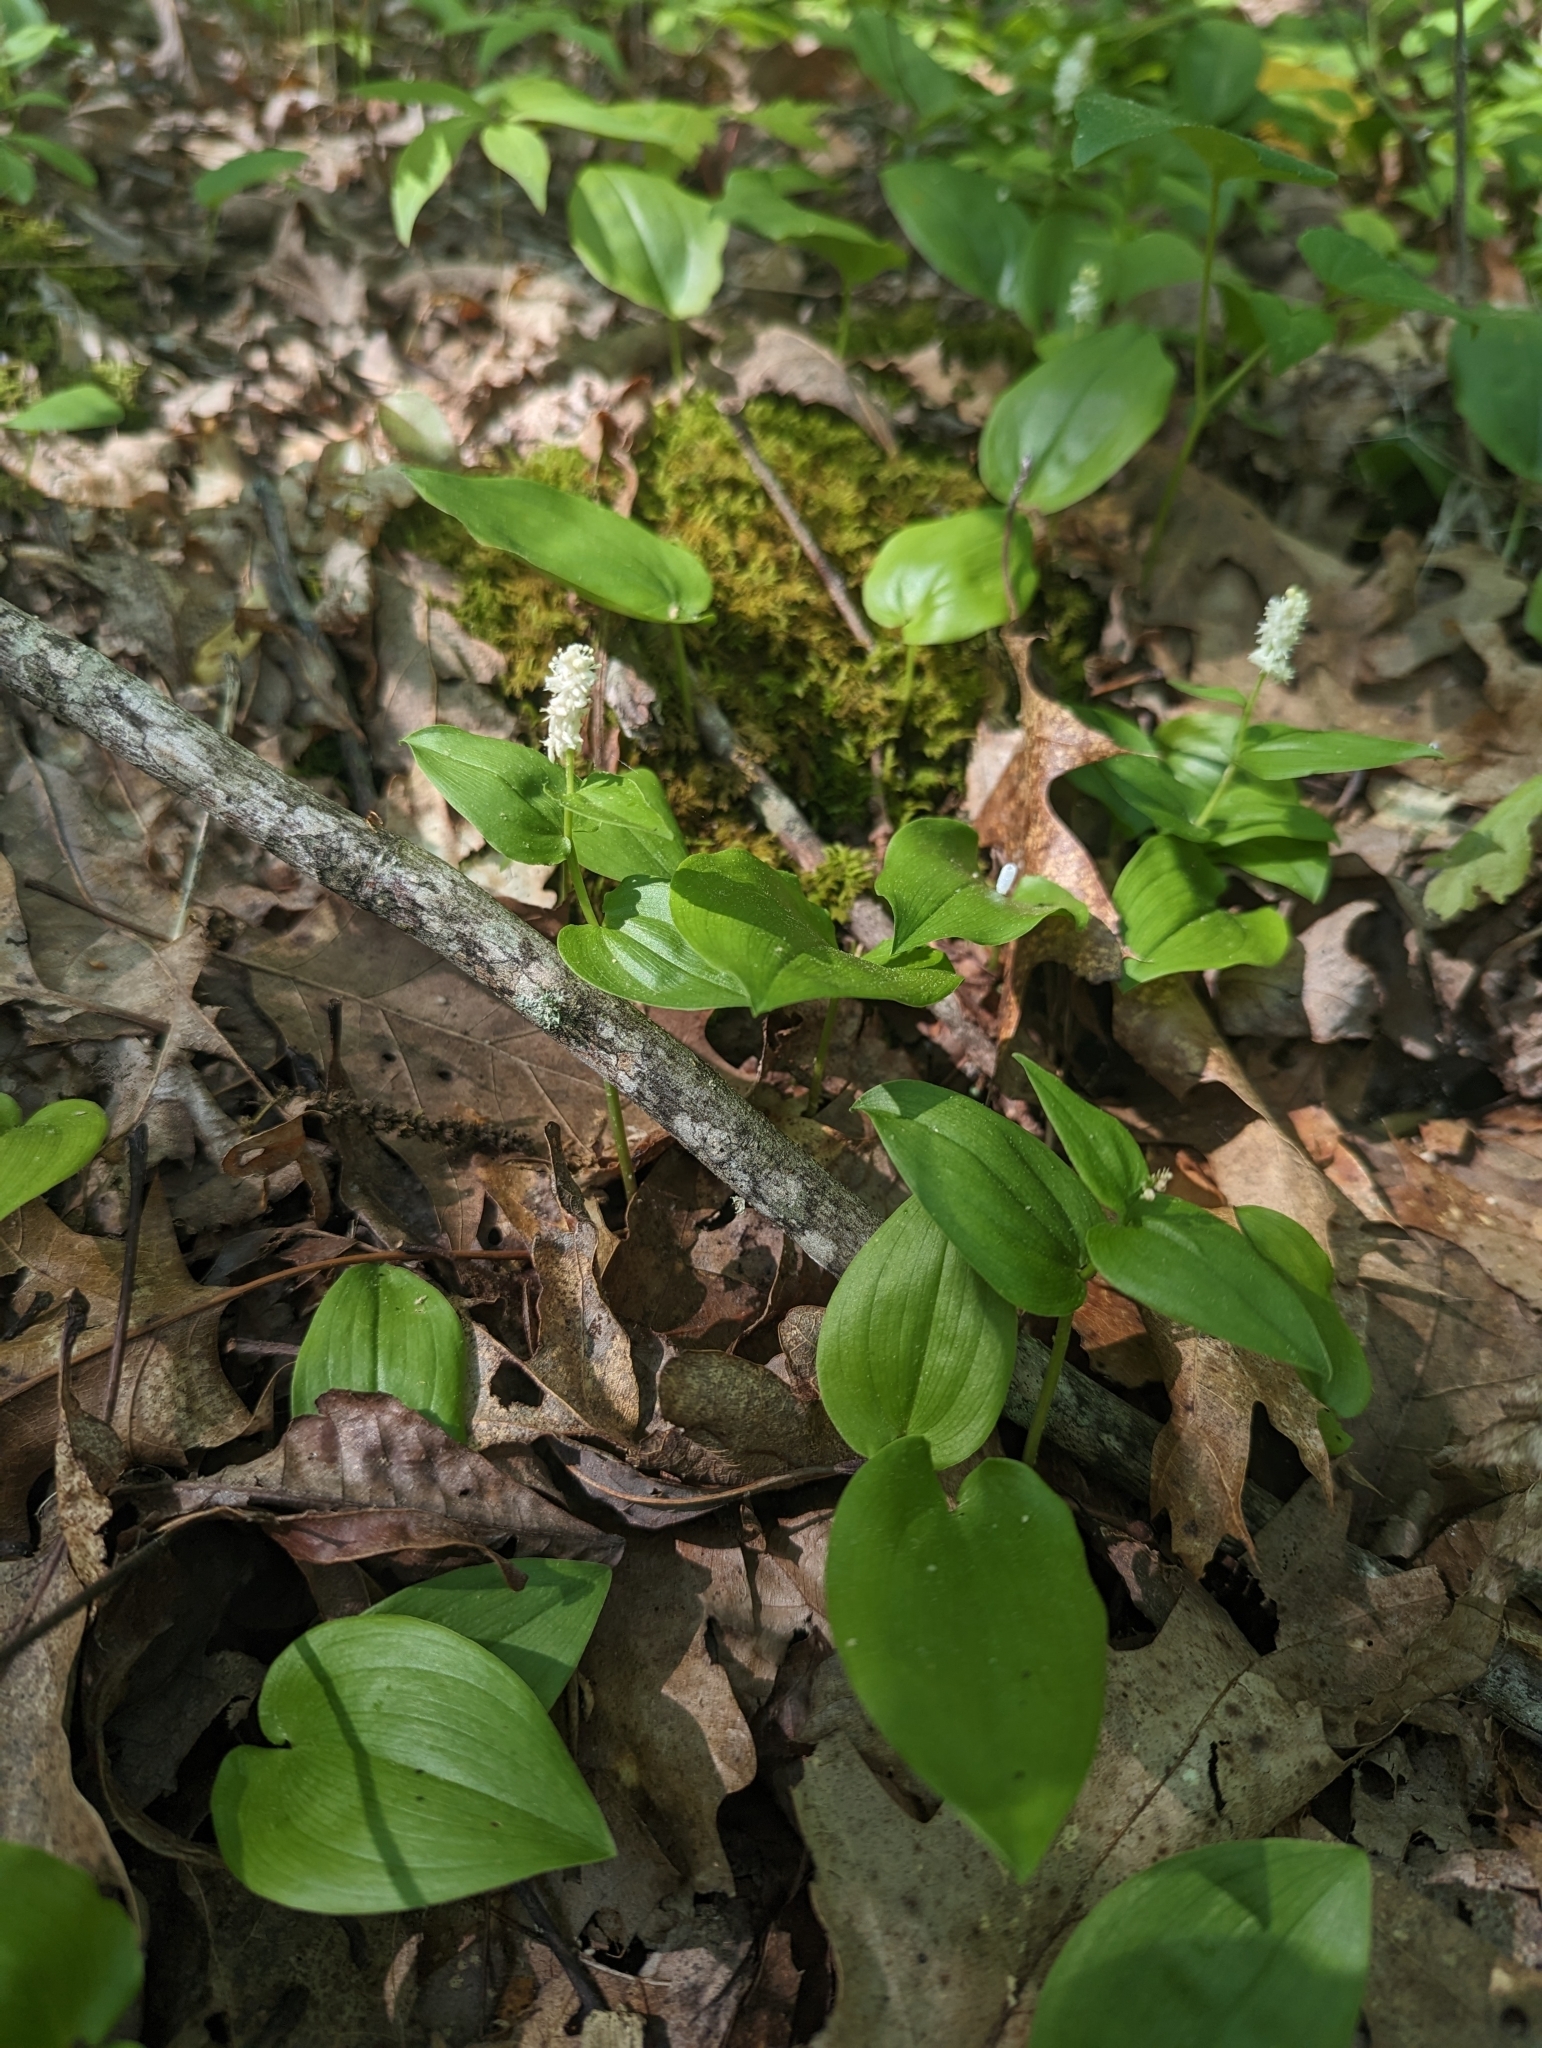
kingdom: Plantae
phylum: Tracheophyta
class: Liliopsida
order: Asparagales
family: Asparagaceae
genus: Maianthemum
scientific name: Maianthemum canadense
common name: False lily-of-the-valley
